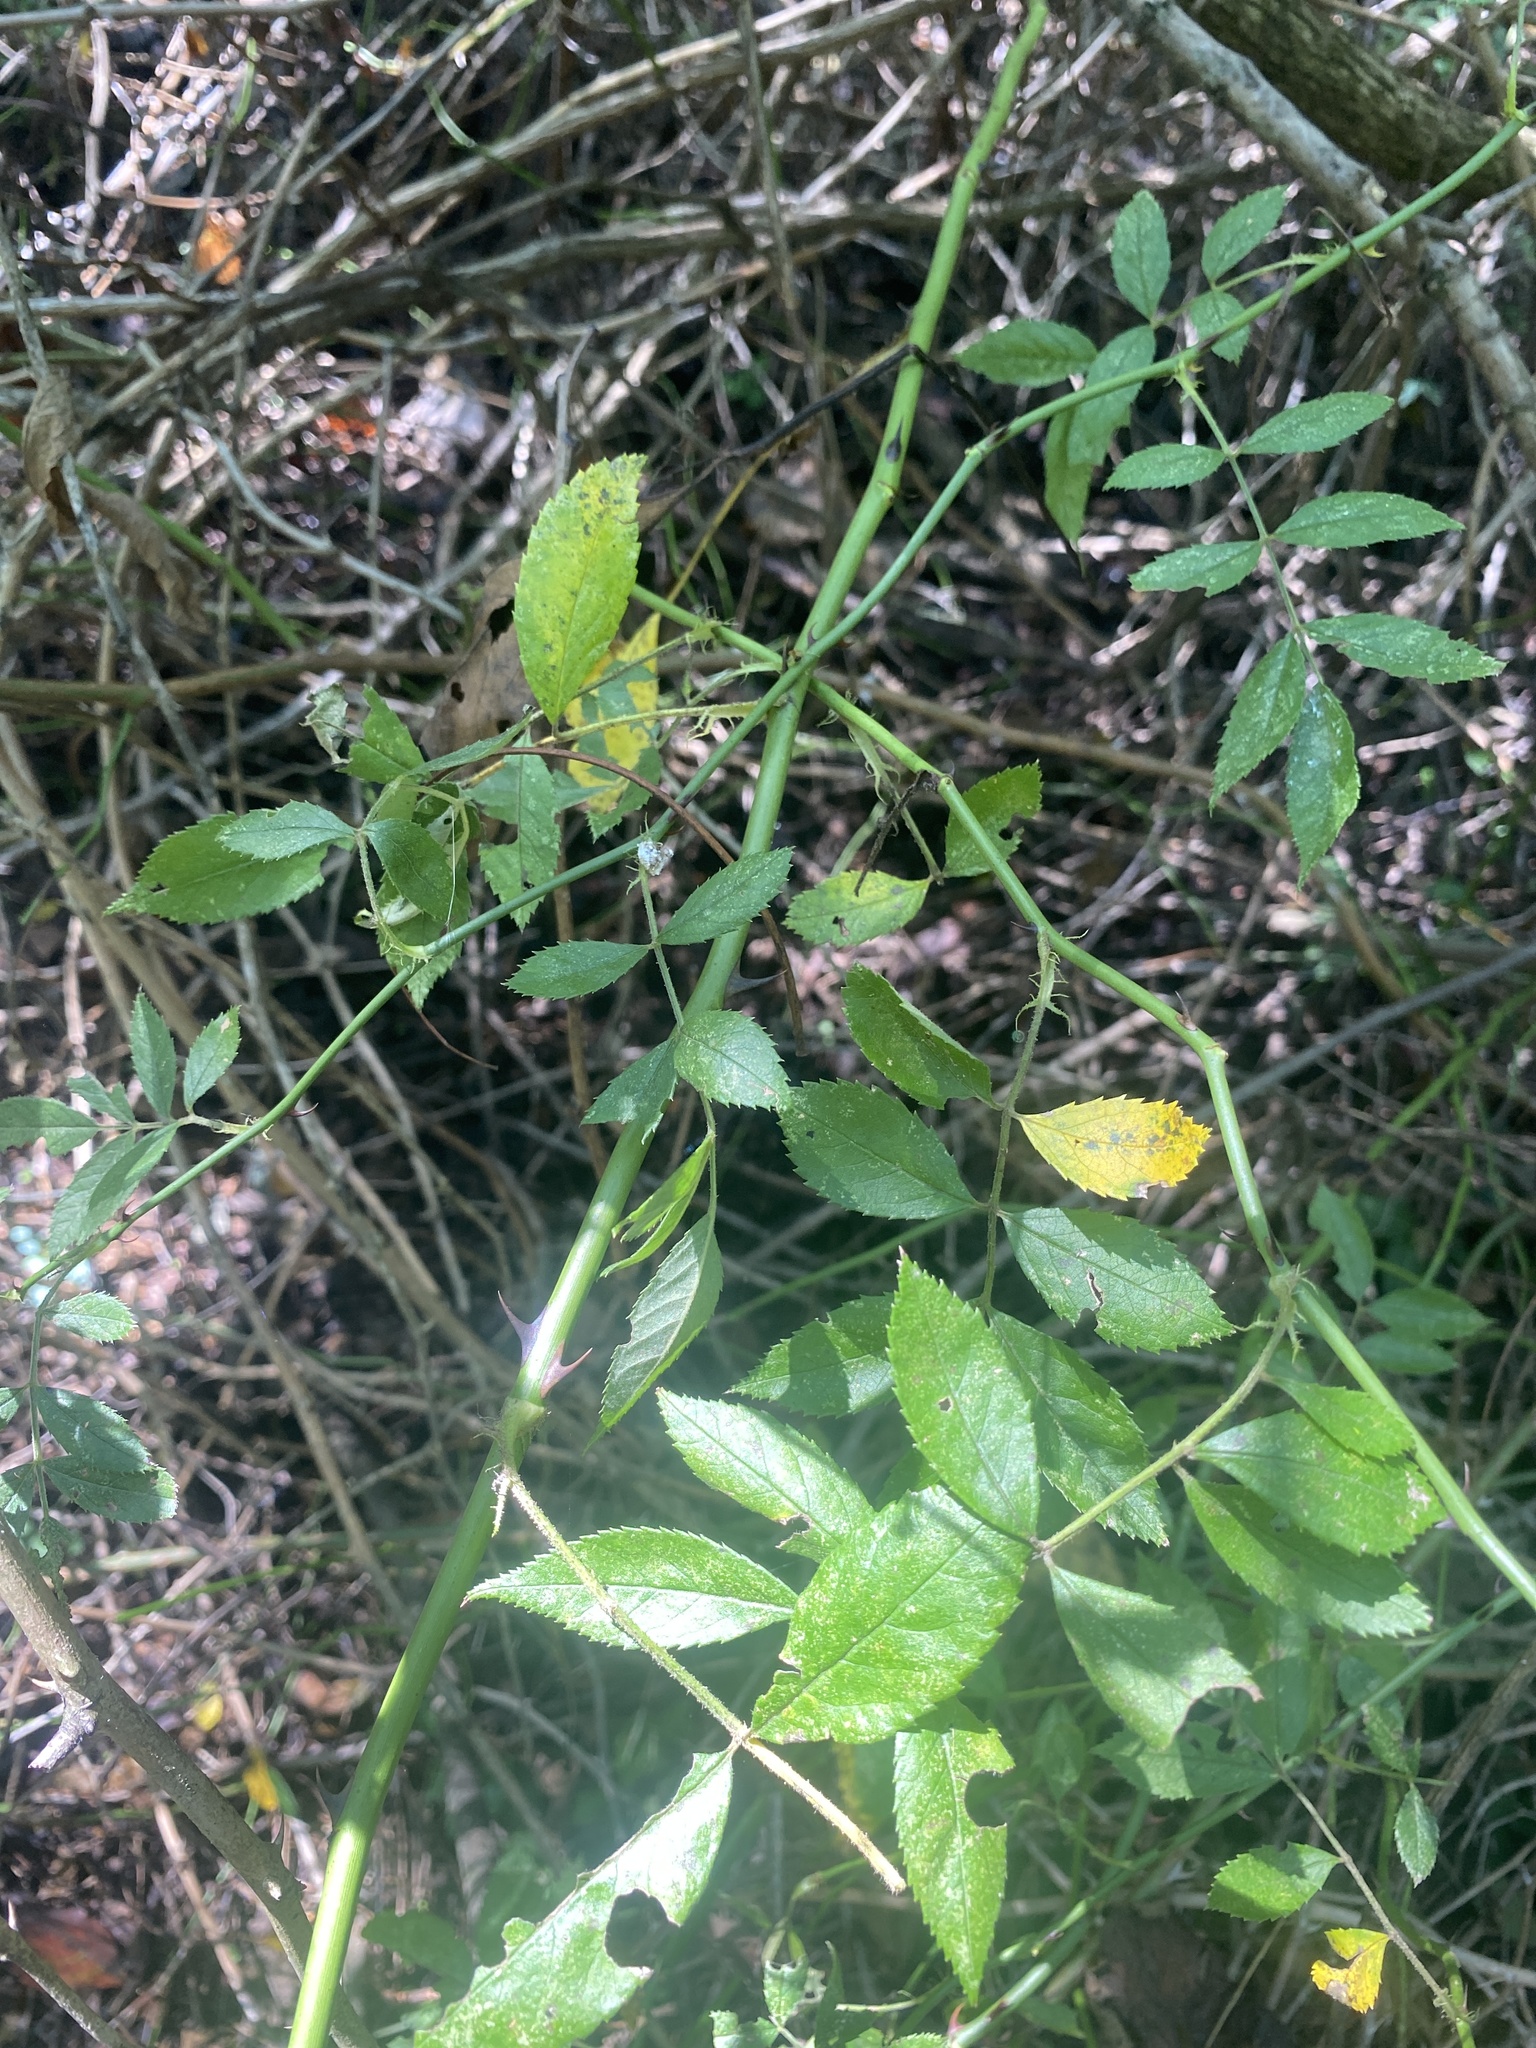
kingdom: Plantae
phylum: Tracheophyta
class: Magnoliopsida
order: Rosales
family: Rosaceae
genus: Rosa
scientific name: Rosa multiflora
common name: Multiflora rose
